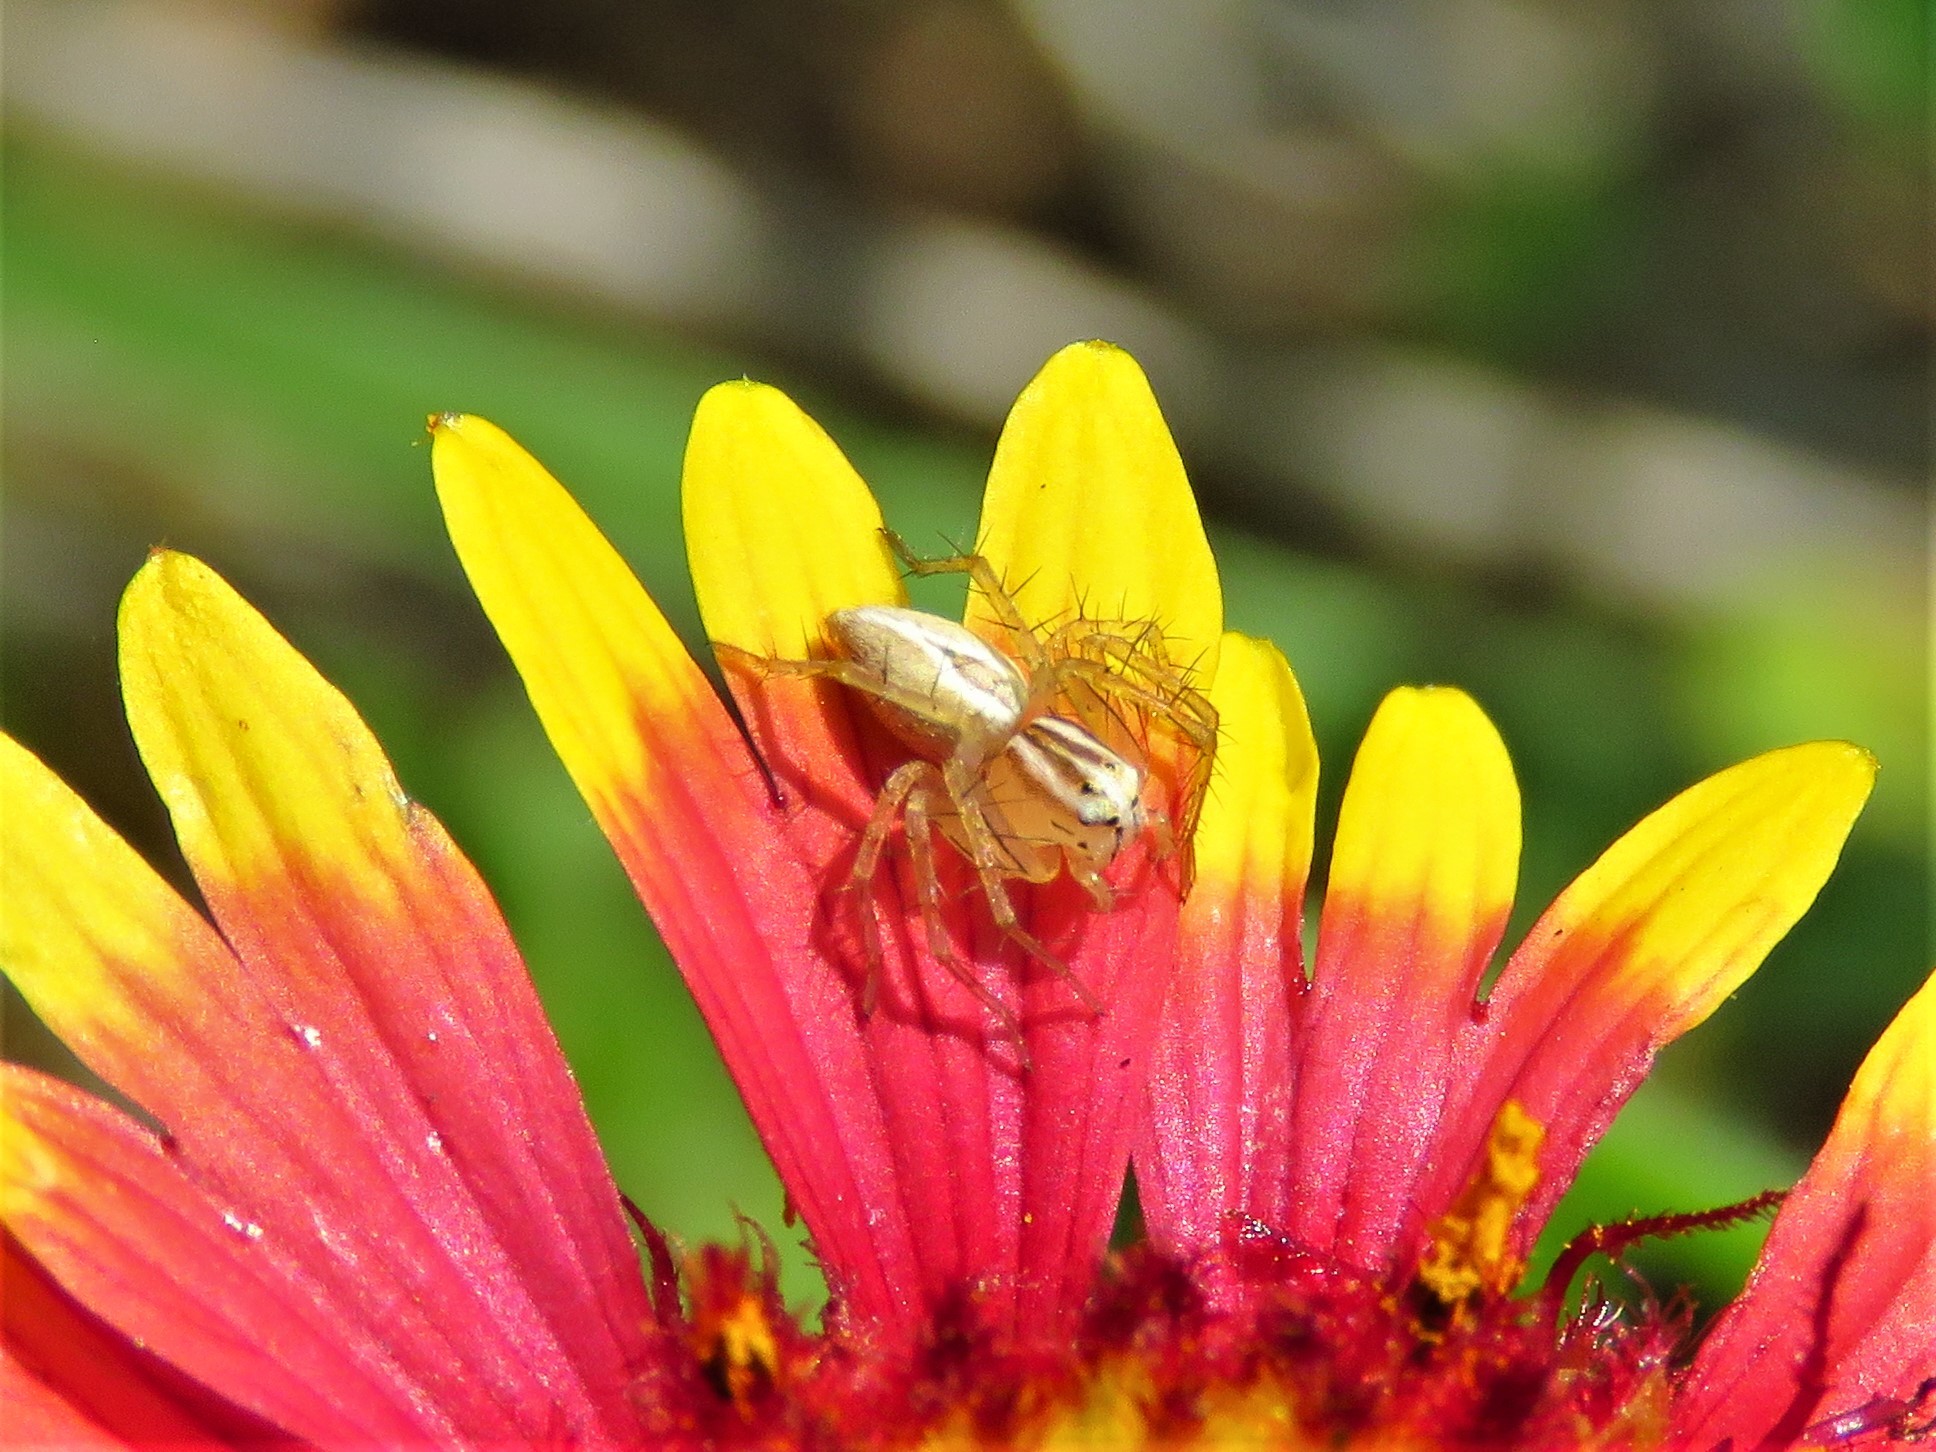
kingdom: Animalia
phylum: Arthropoda
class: Arachnida
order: Araneae
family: Oxyopidae
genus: Oxyopes
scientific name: Oxyopes salticus
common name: Lynx spiders
